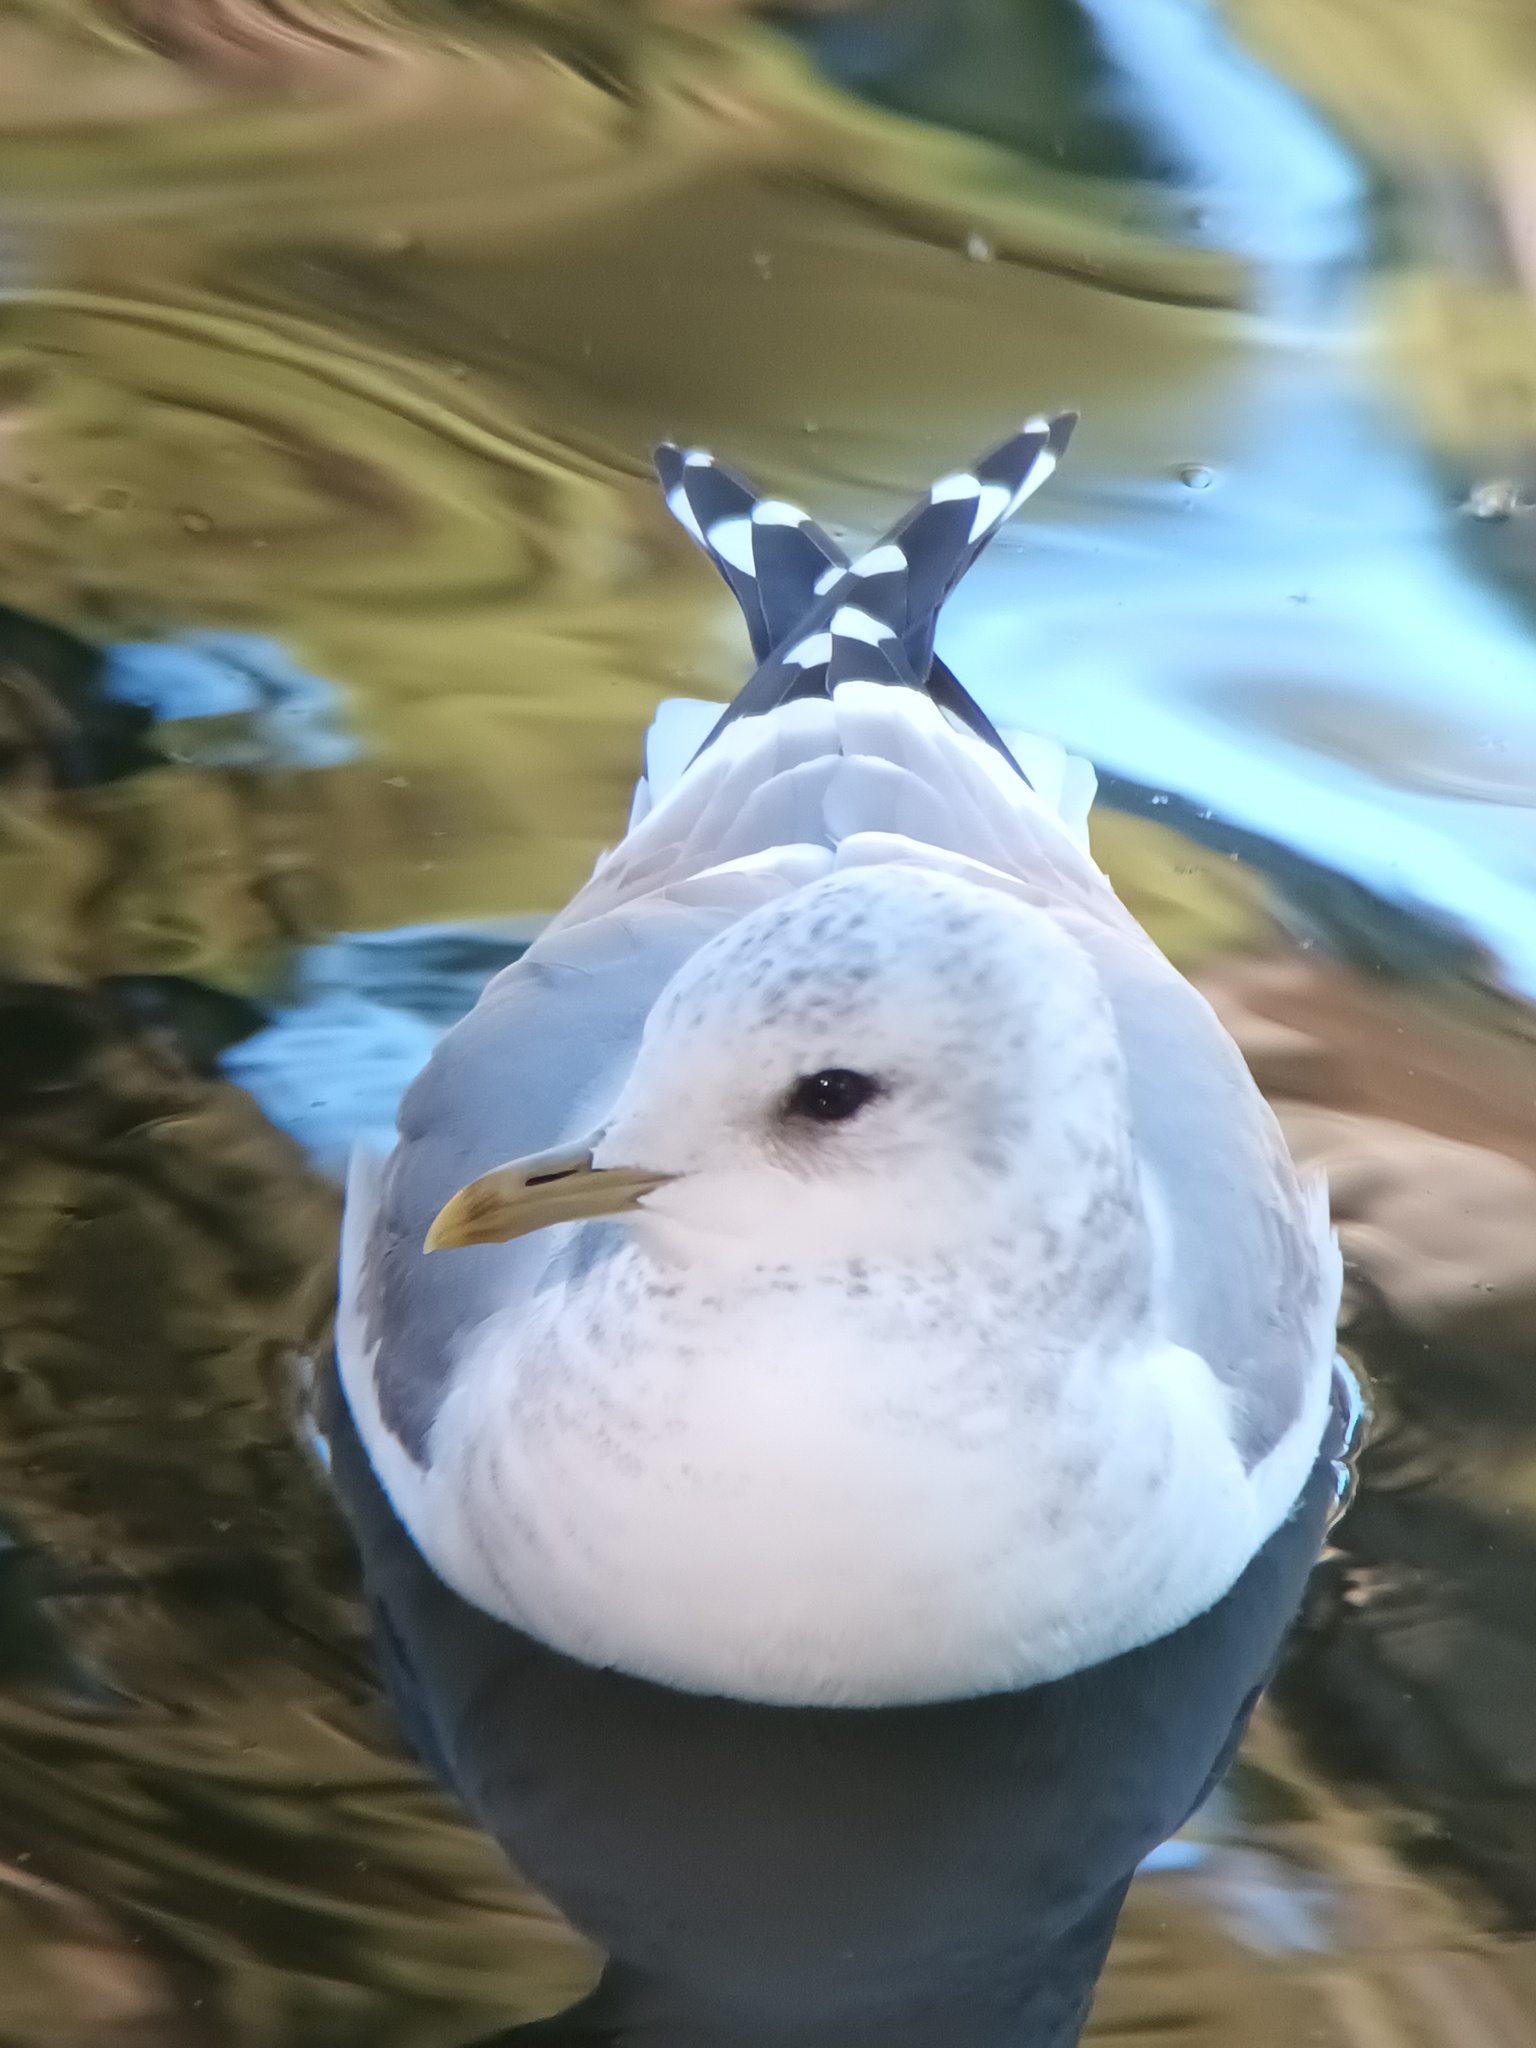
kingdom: Animalia
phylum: Chordata
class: Aves
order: Charadriiformes
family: Laridae
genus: Larus
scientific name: Larus brachyrhynchus
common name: Short-billed gull
